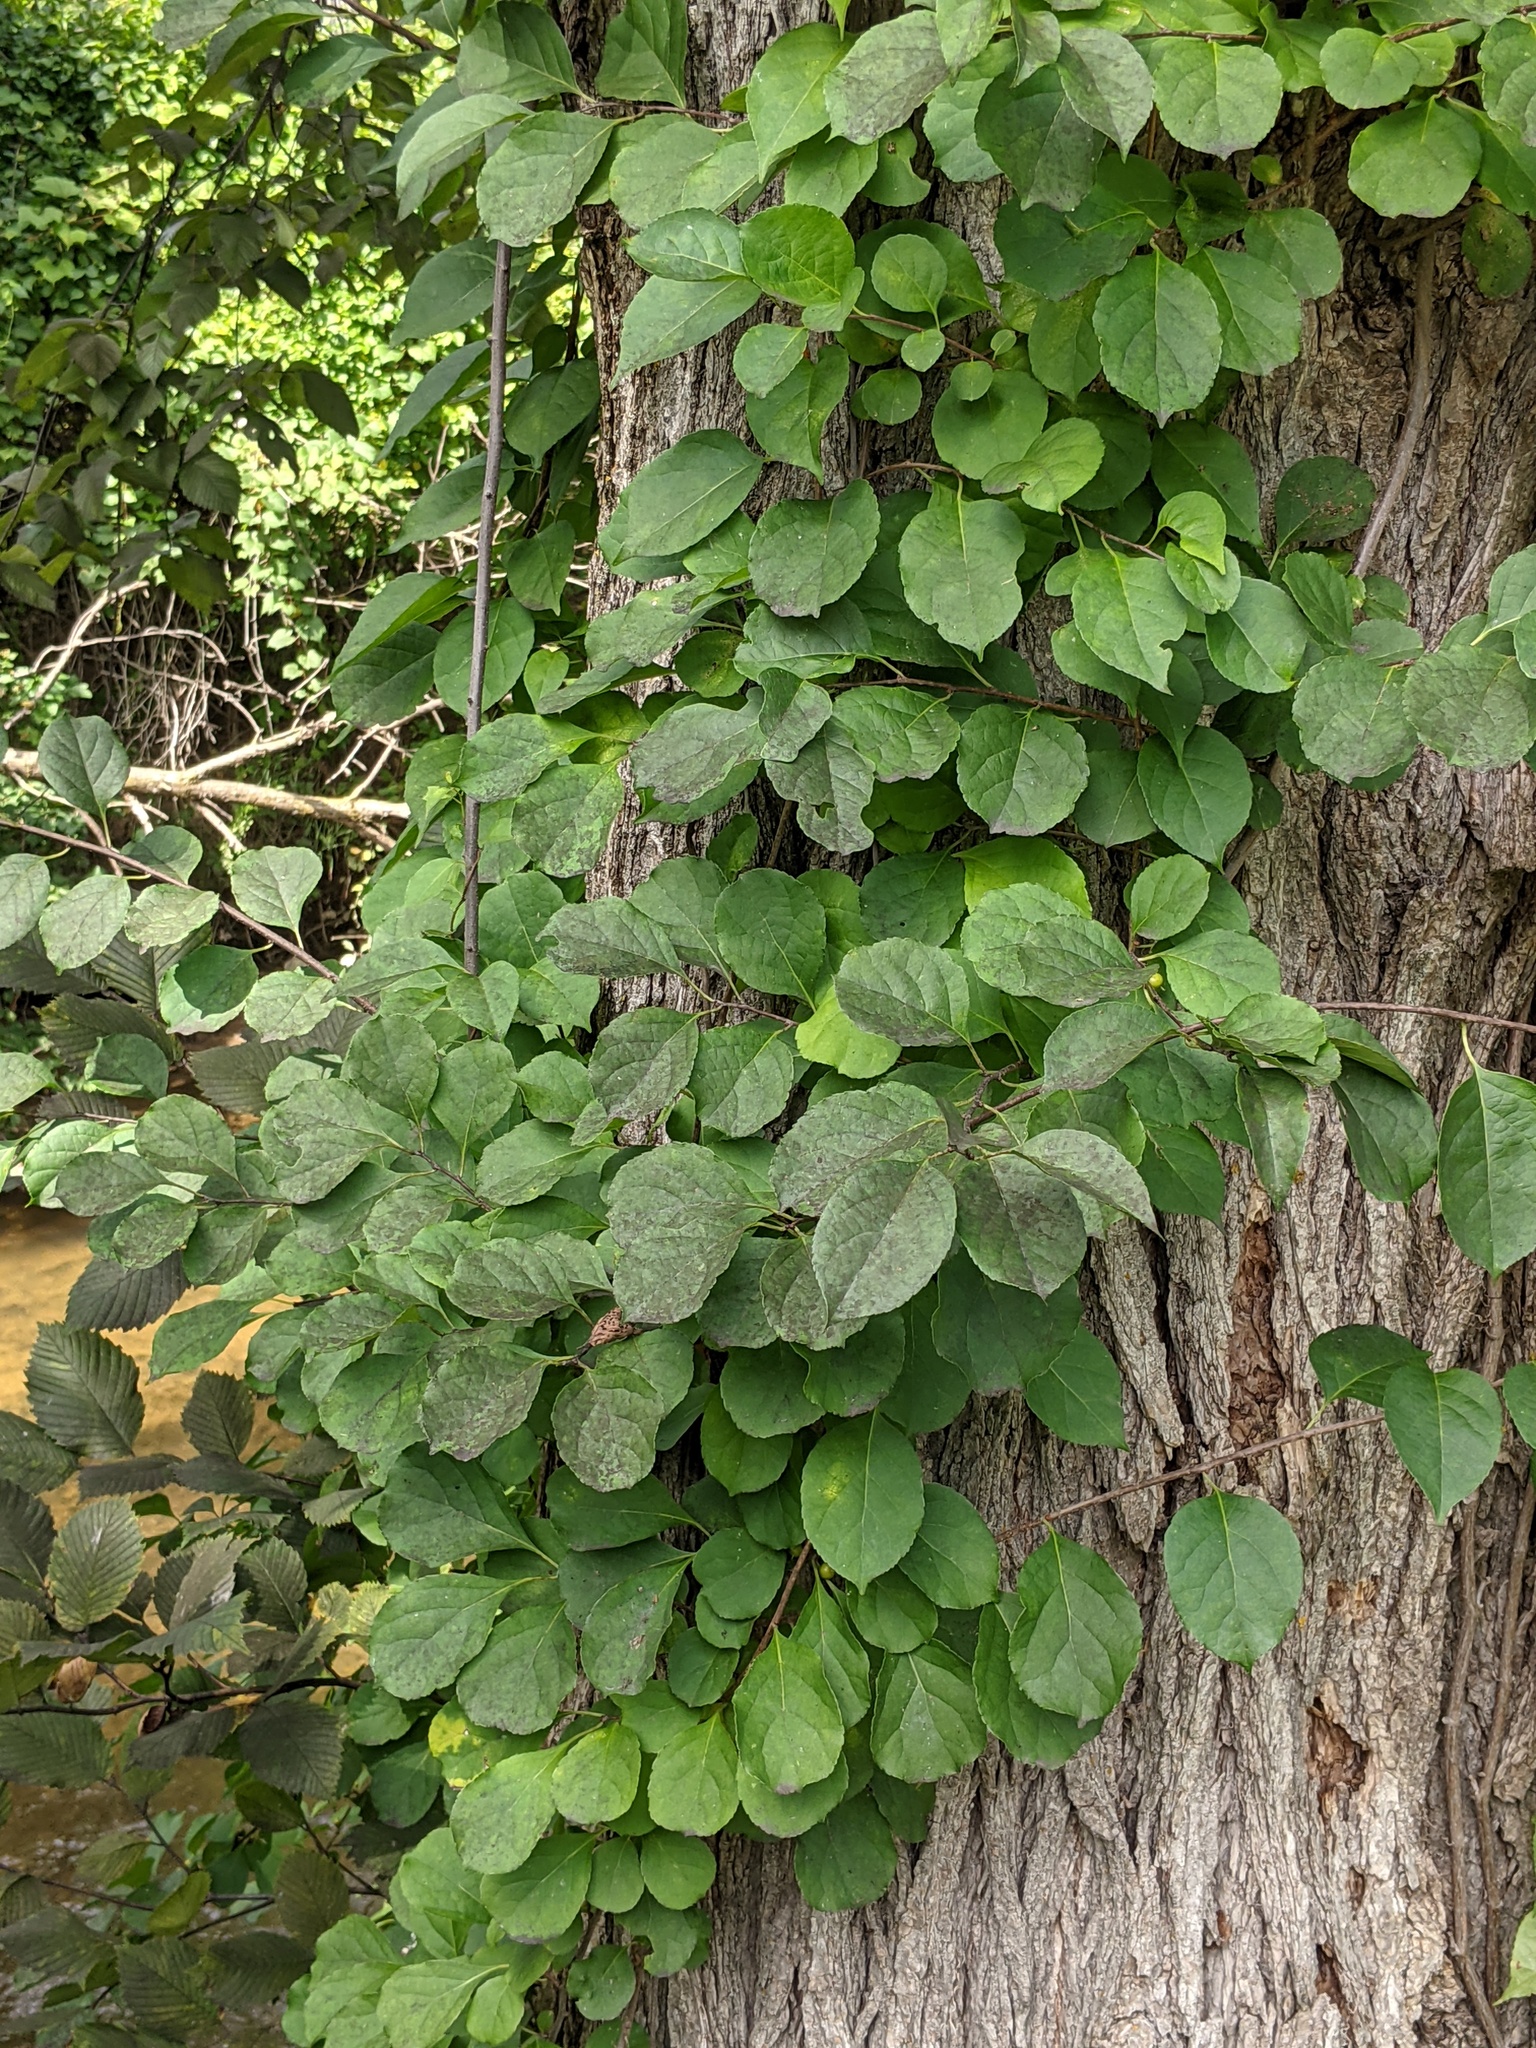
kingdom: Plantae
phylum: Tracheophyta
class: Magnoliopsida
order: Celastrales
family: Celastraceae
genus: Celastrus
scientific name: Celastrus orbiculatus
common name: Oriental bittersweet
